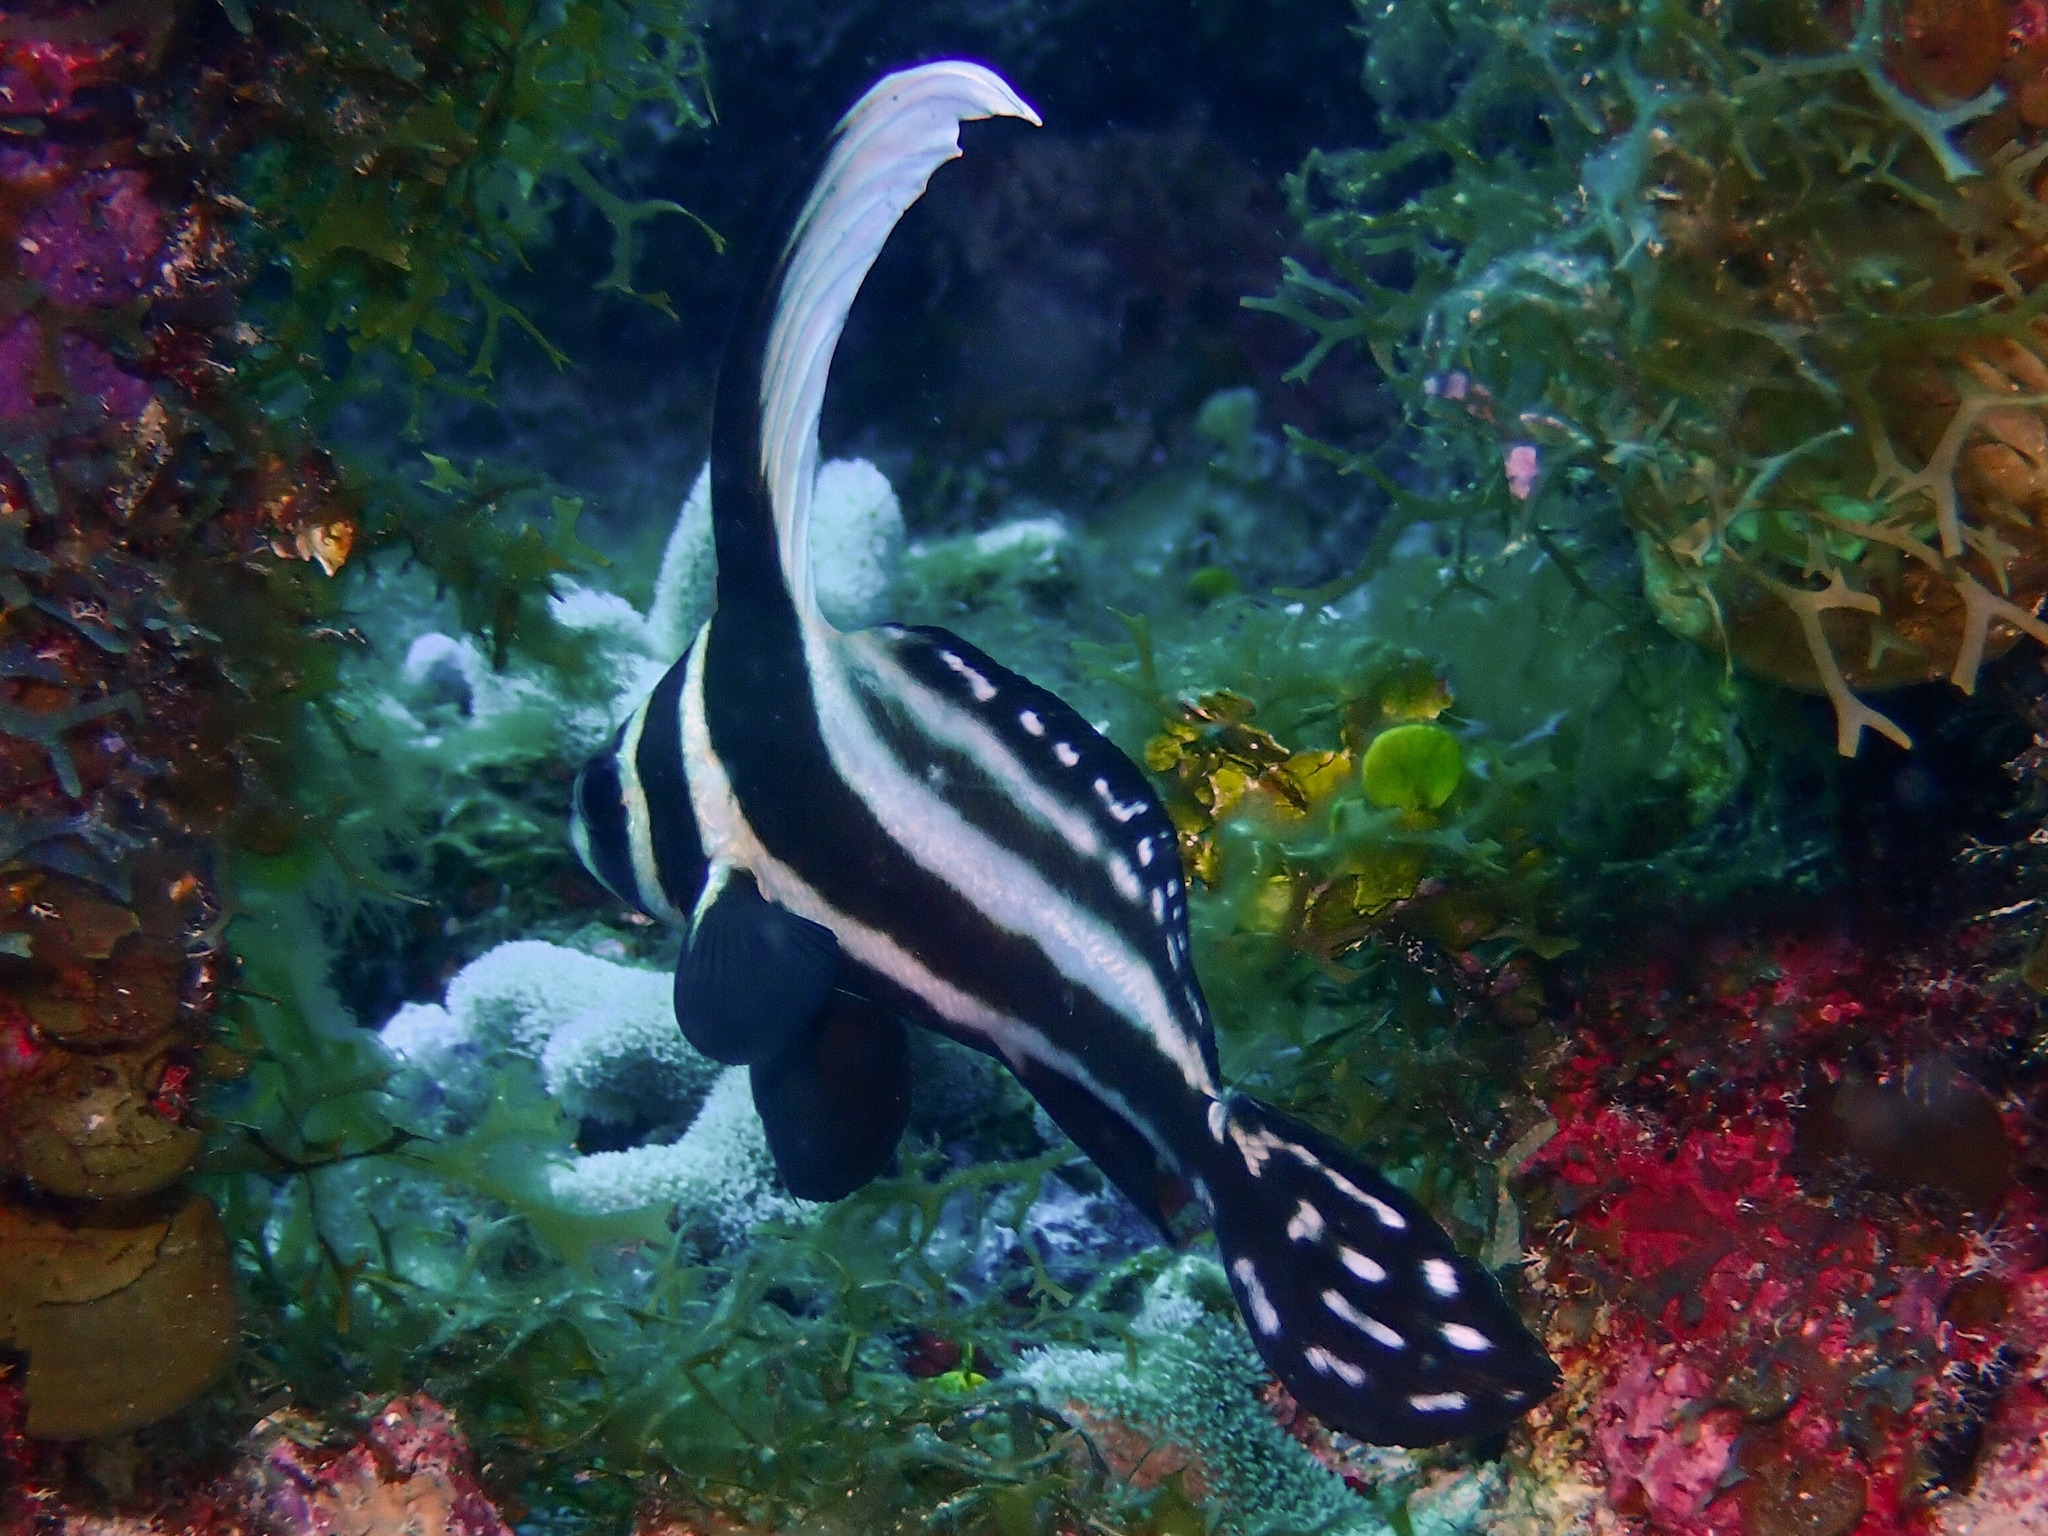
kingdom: Animalia
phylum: Chordata
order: Perciformes
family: Sciaenidae
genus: Equetus
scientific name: Equetus punctatus
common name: Spotted drum
